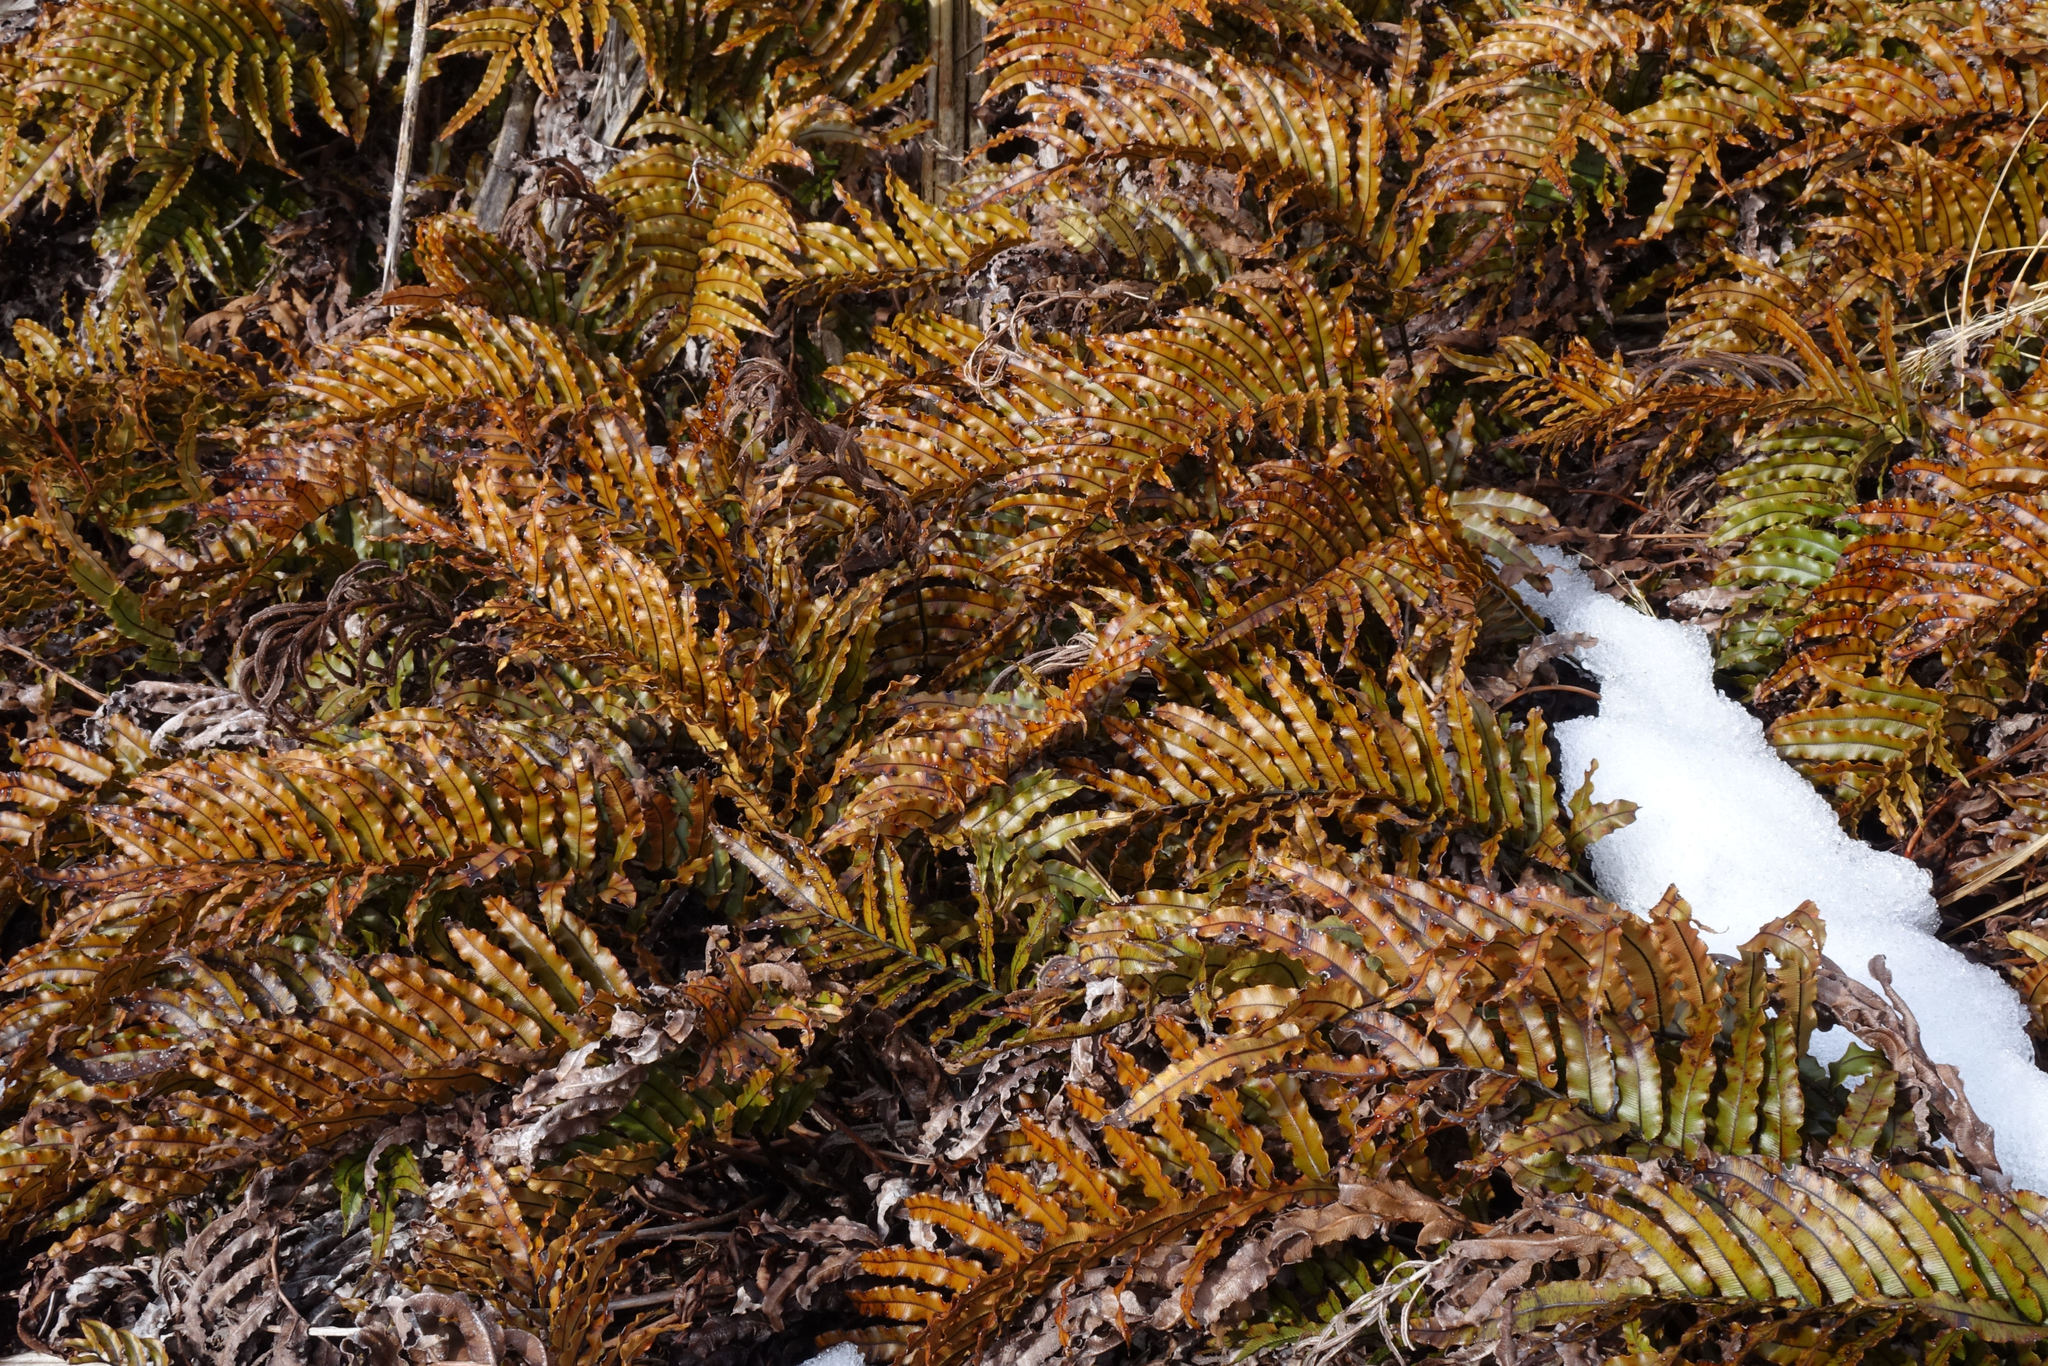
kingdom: Plantae
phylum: Tracheophyta
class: Polypodiopsida
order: Polypodiales
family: Blechnaceae
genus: Parablechnum
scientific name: Parablechnum montanum
